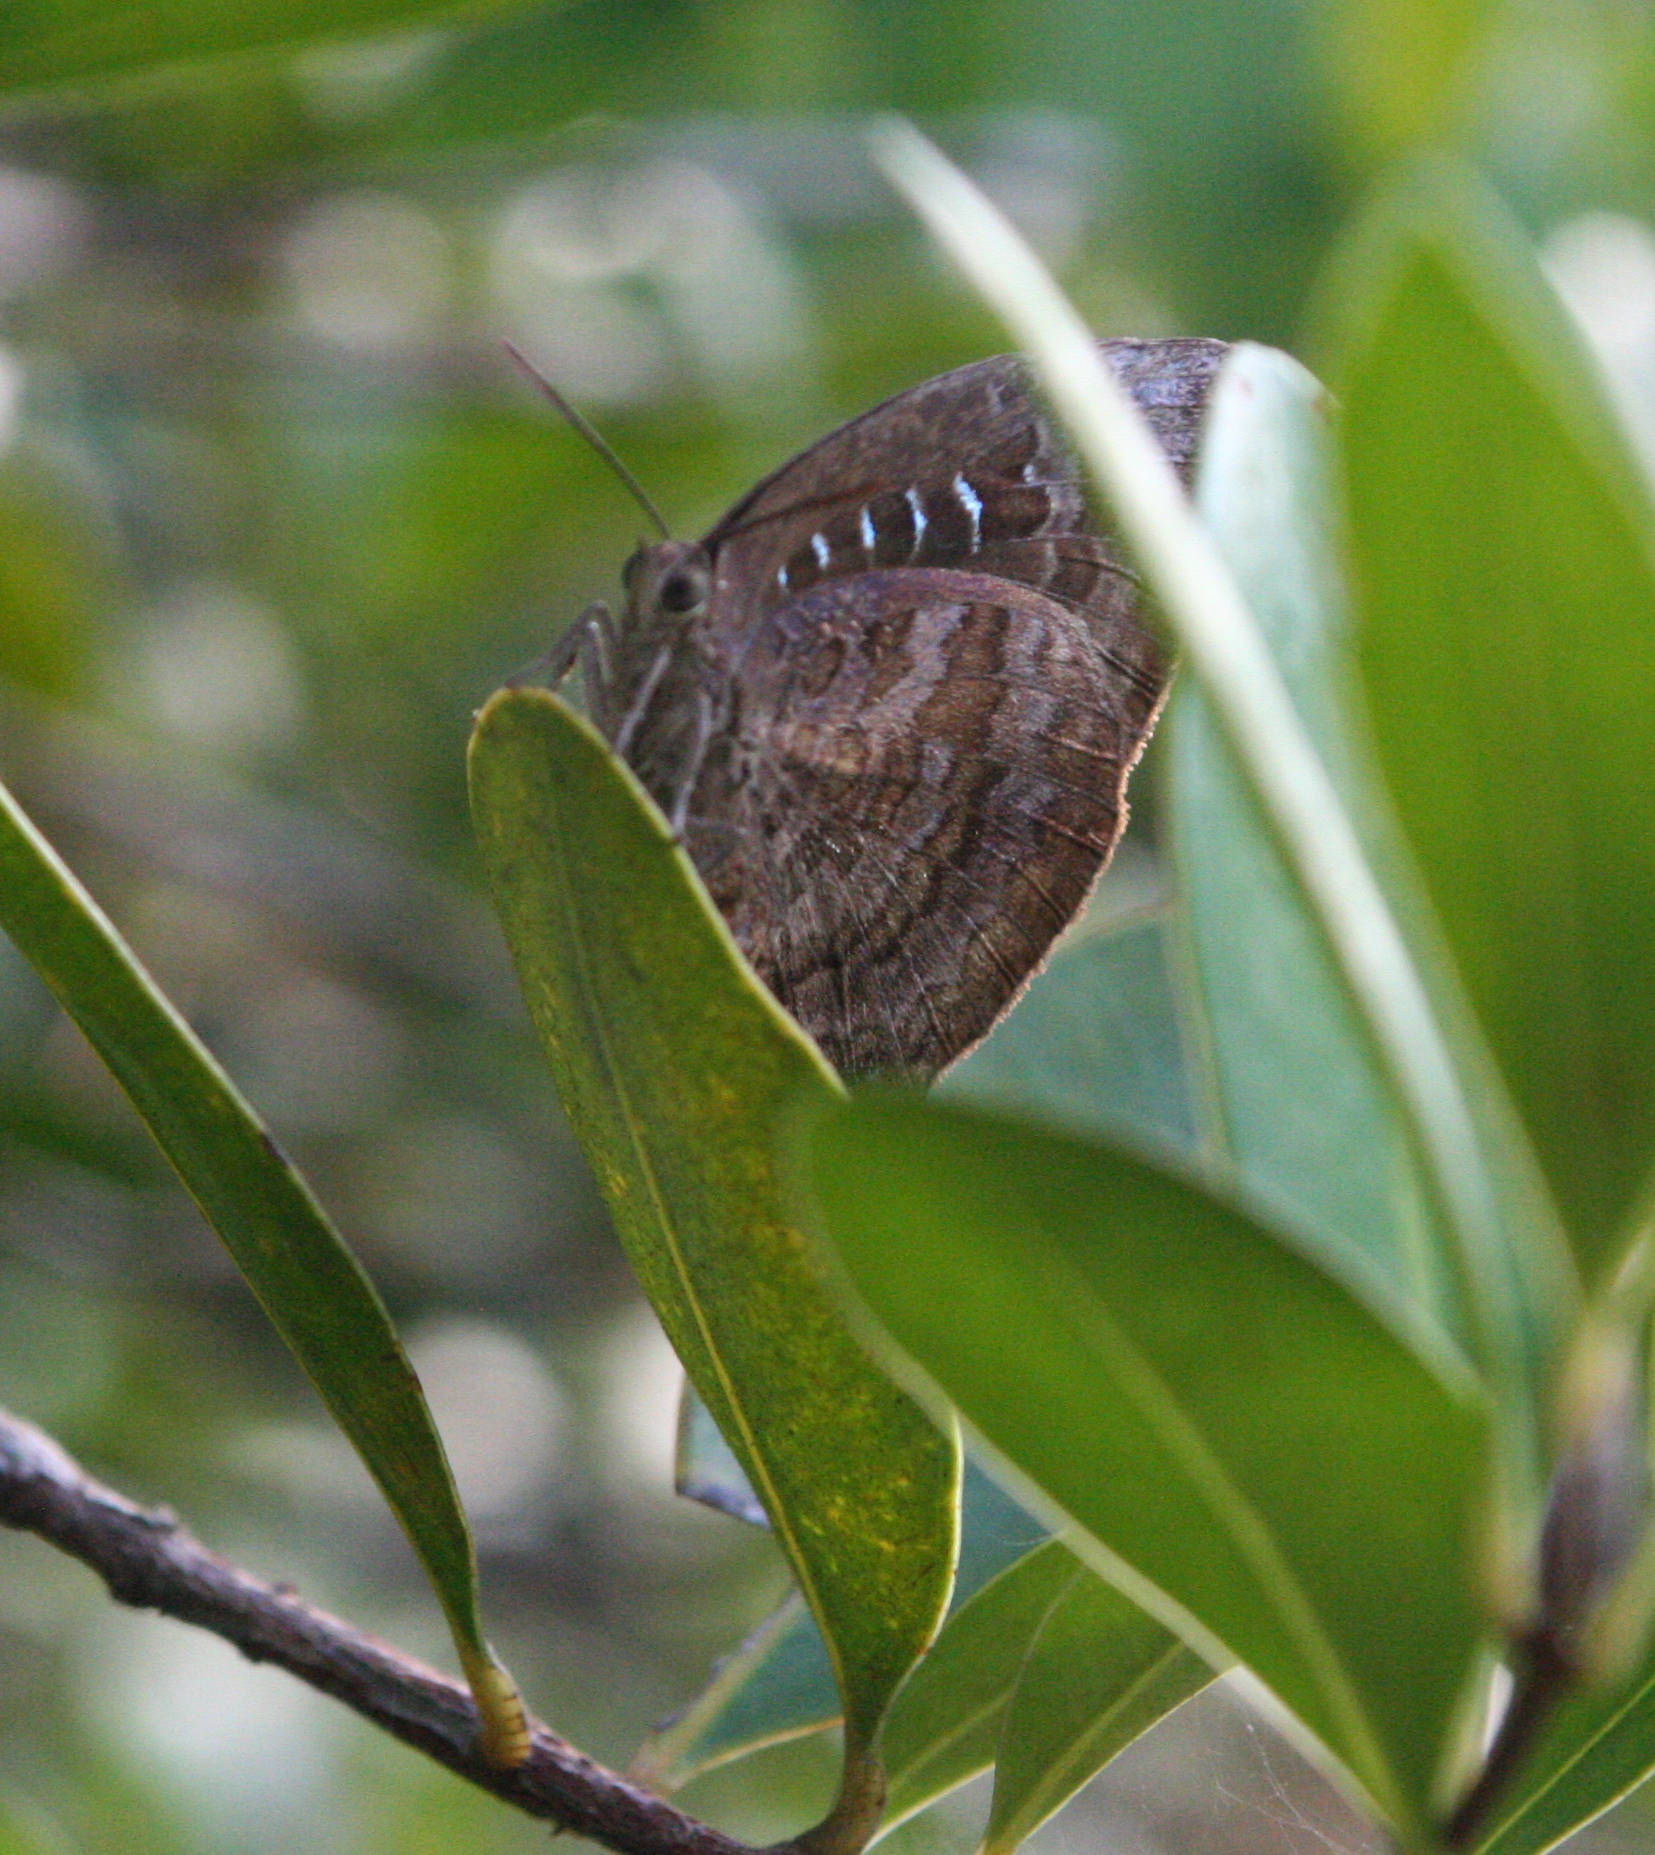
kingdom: Animalia
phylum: Arthropoda
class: Insecta
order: Lepidoptera
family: Lycaenidae
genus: Arhopala
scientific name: Arhopala centaurus
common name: Dull oak-blue
